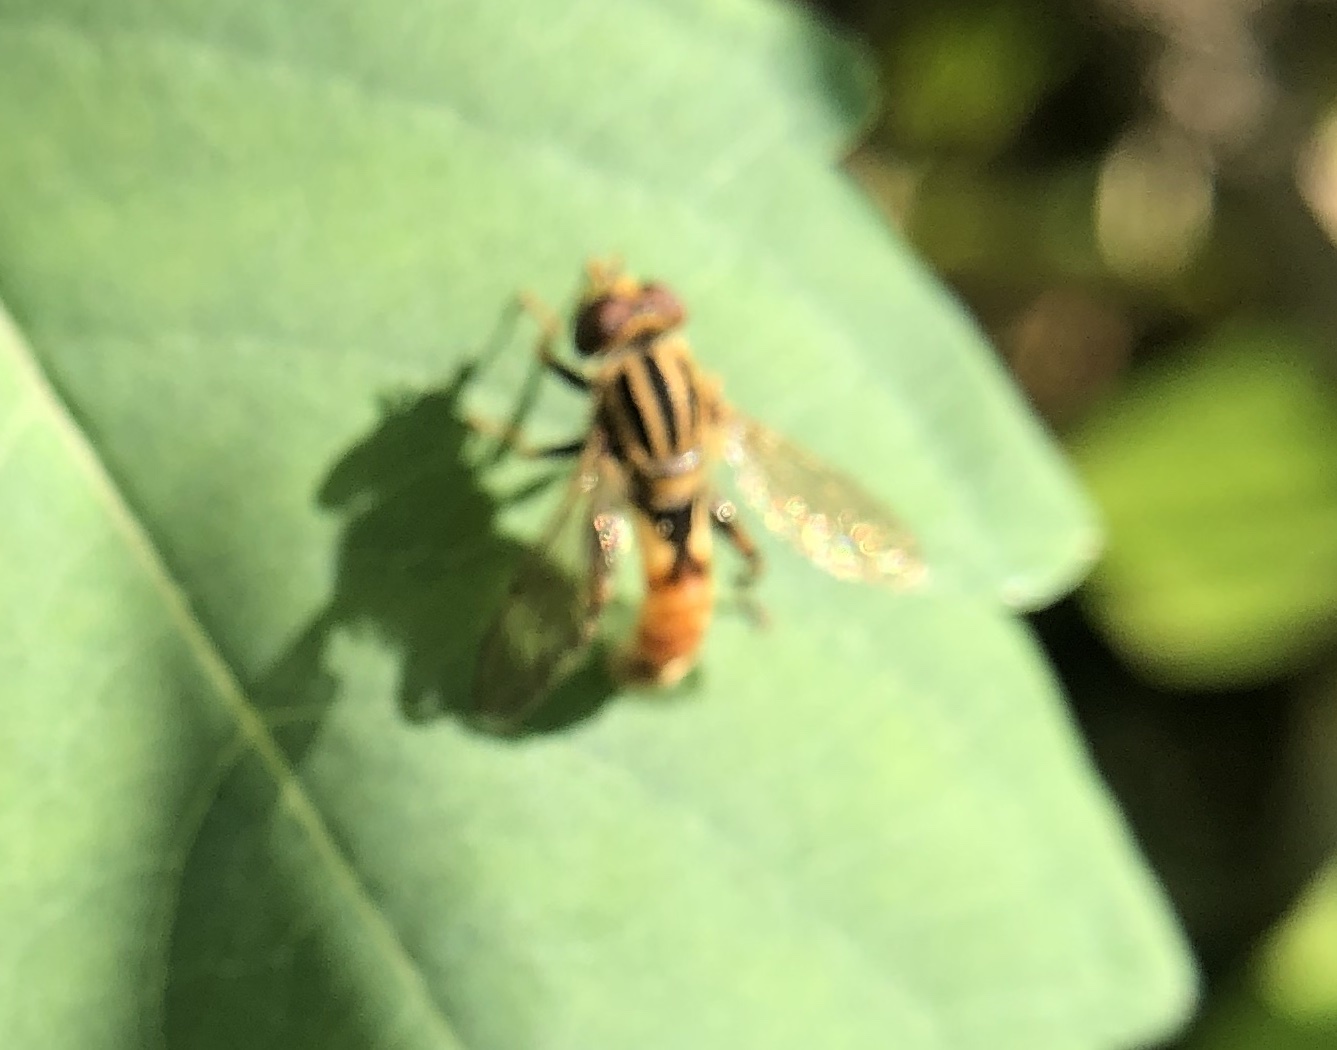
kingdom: Animalia
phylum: Arthropoda
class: Insecta
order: Diptera
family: Syrphidae
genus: Anasimyia
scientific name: Anasimyia
